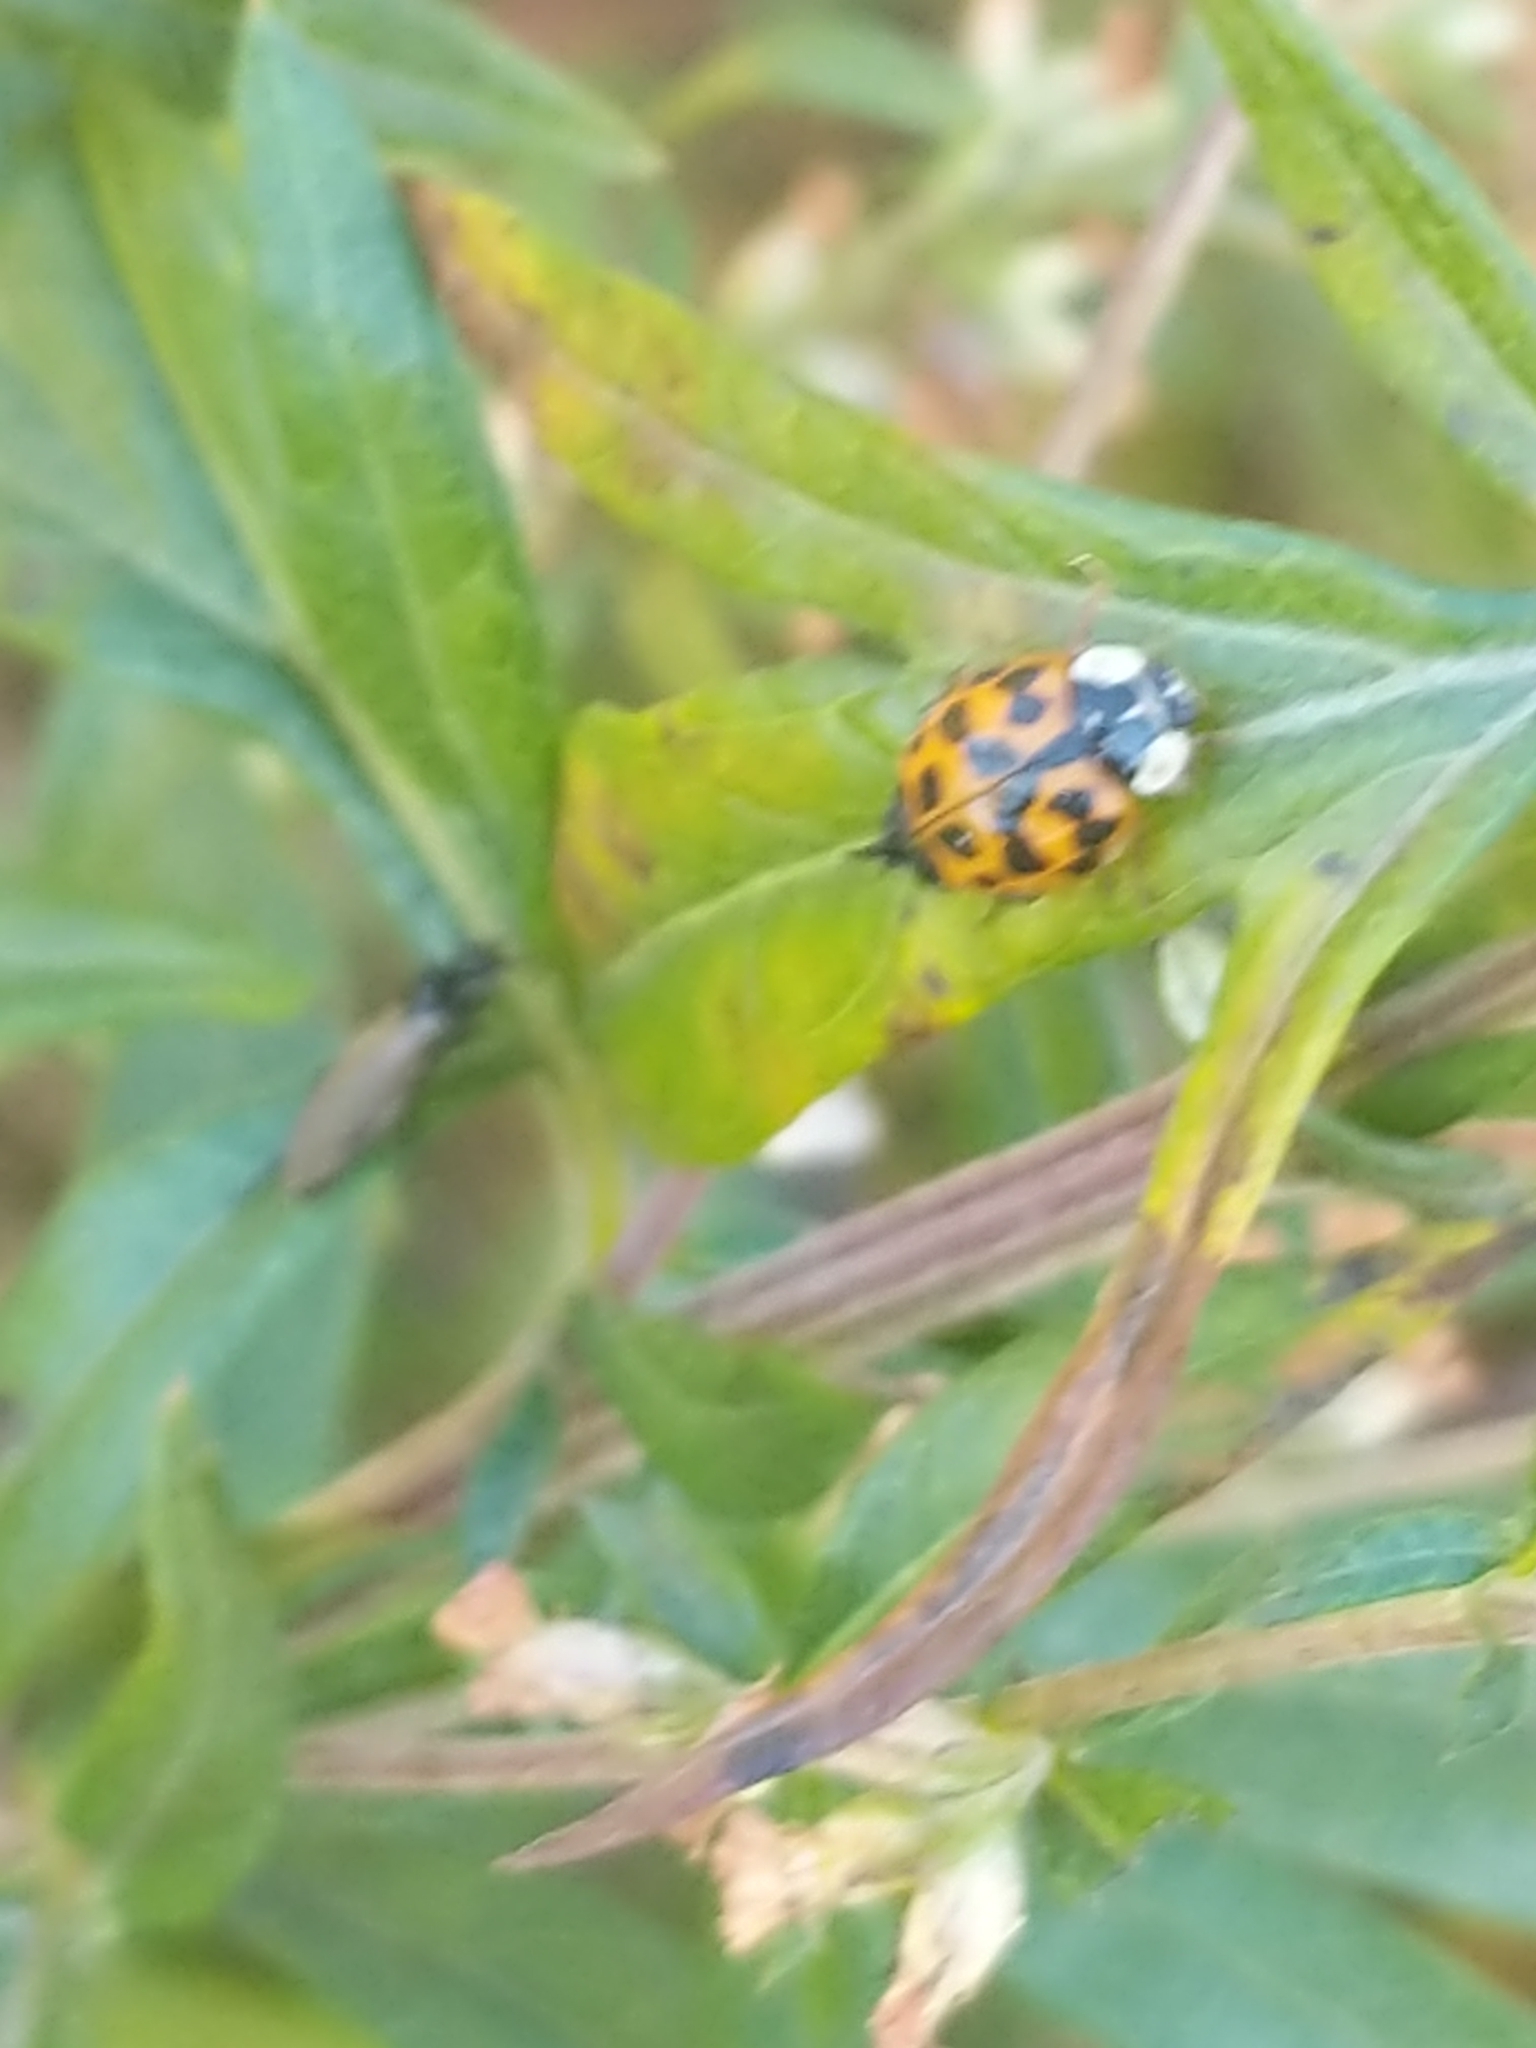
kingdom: Animalia
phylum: Arthropoda
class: Insecta
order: Coleoptera
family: Coccinellidae
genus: Harmonia
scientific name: Harmonia axyridis
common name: Harlequin ladybird
